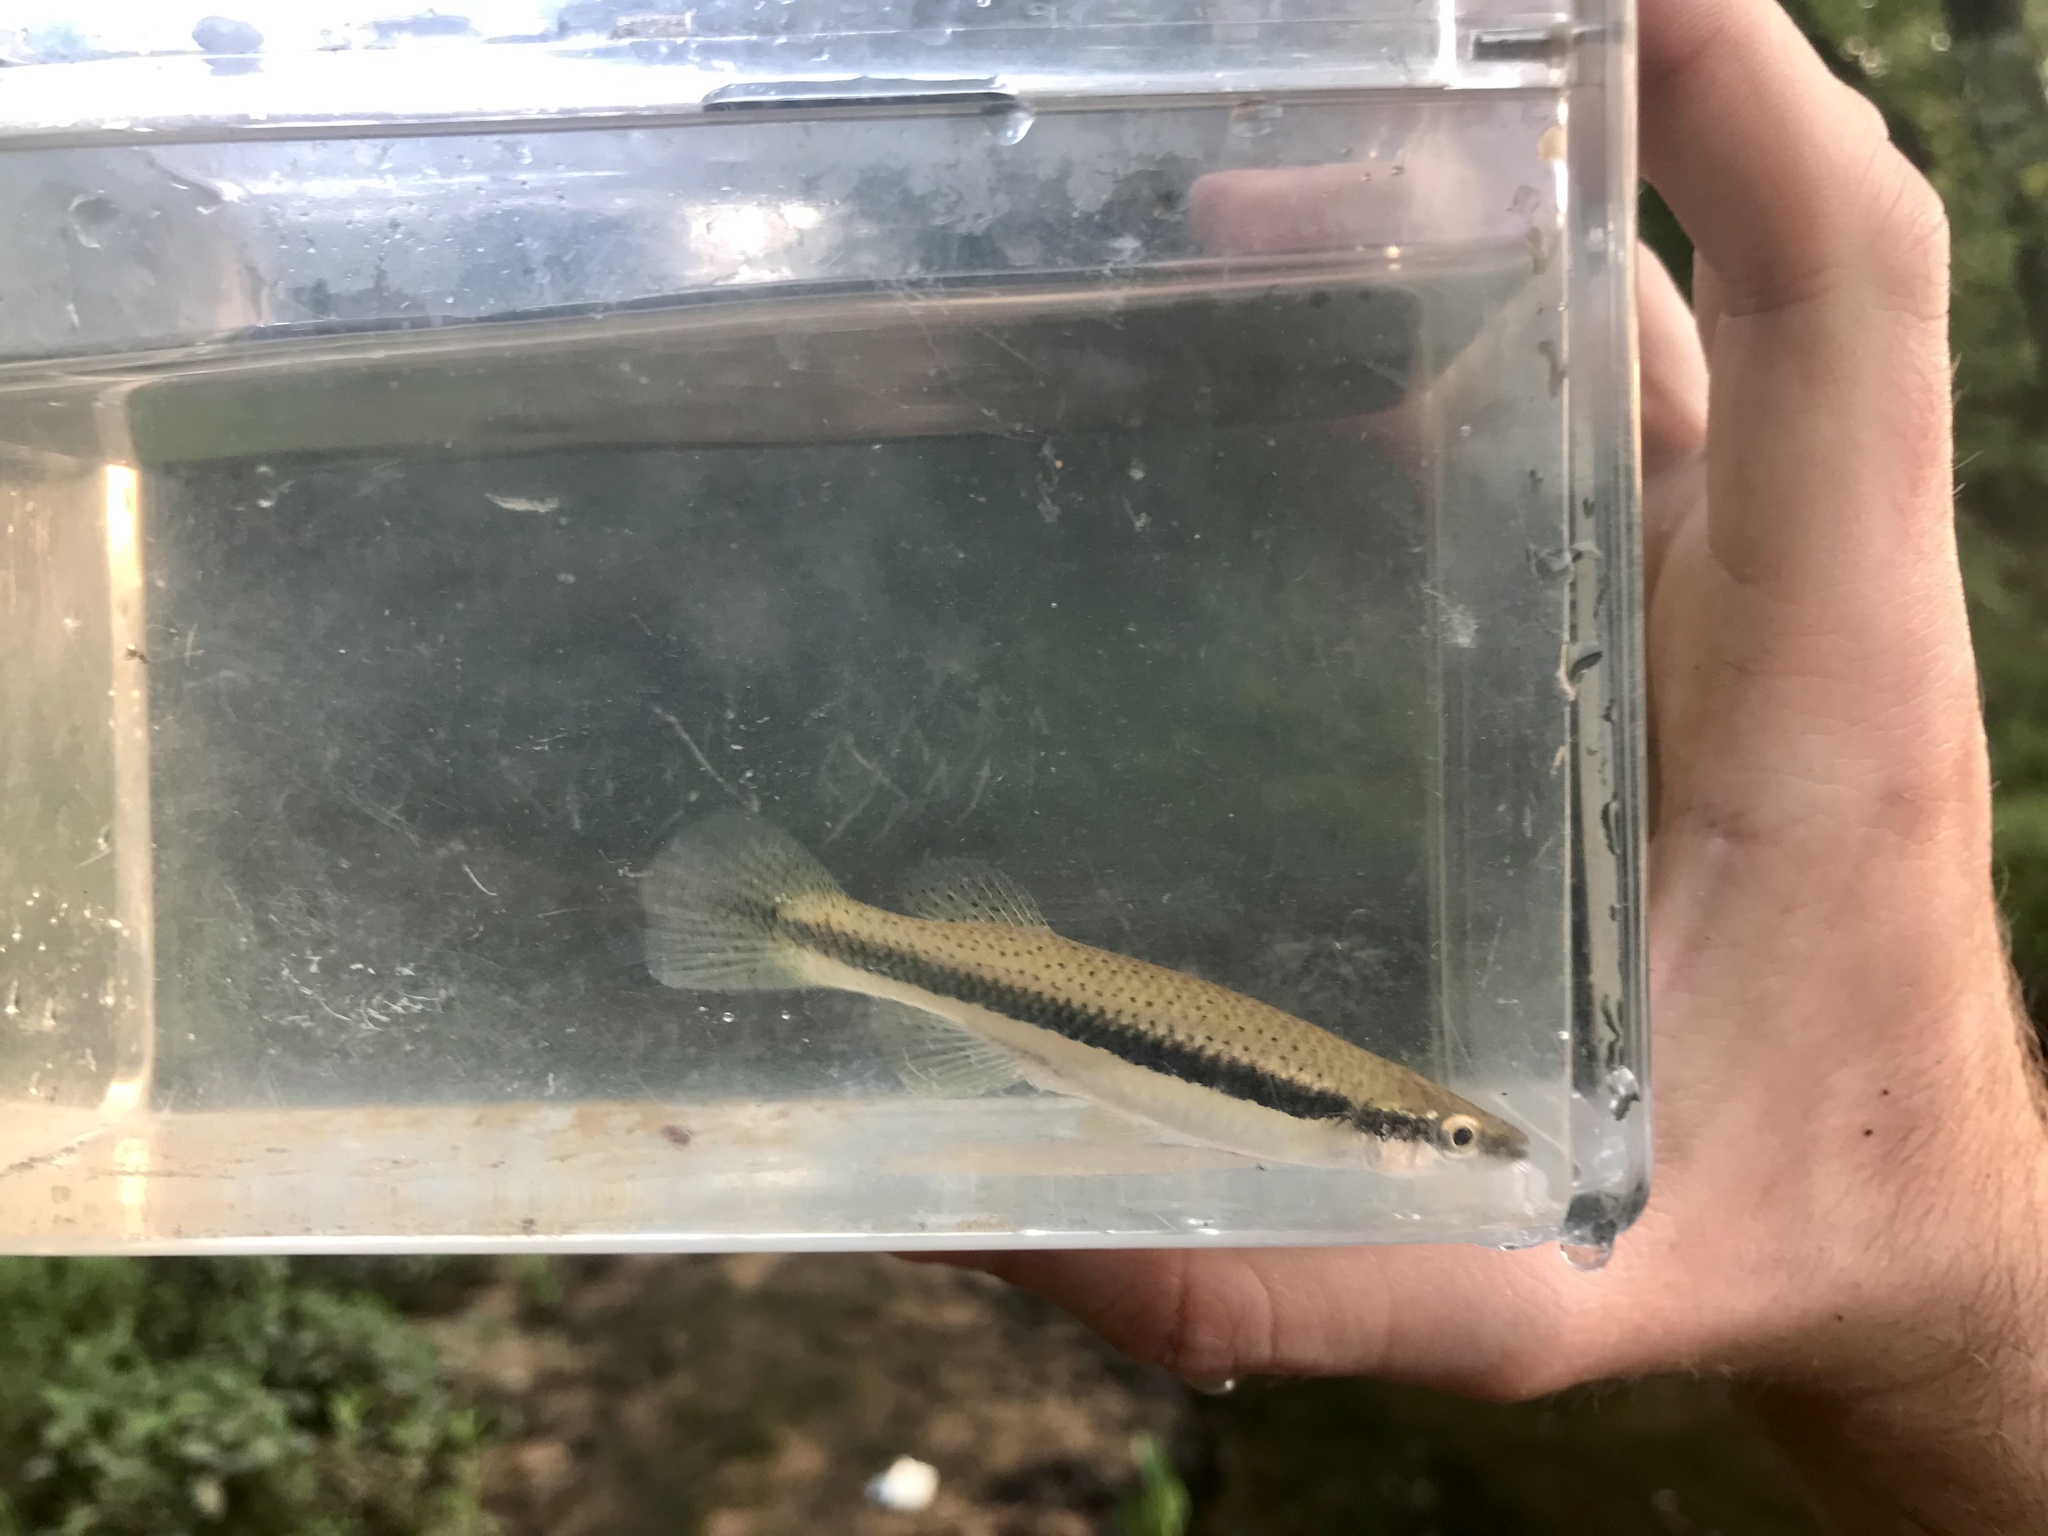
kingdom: Animalia
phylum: Chordata
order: Cyprinodontiformes
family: Fundulidae
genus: Fundulus
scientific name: Fundulus olivaceus
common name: Blackspotted topminnow
